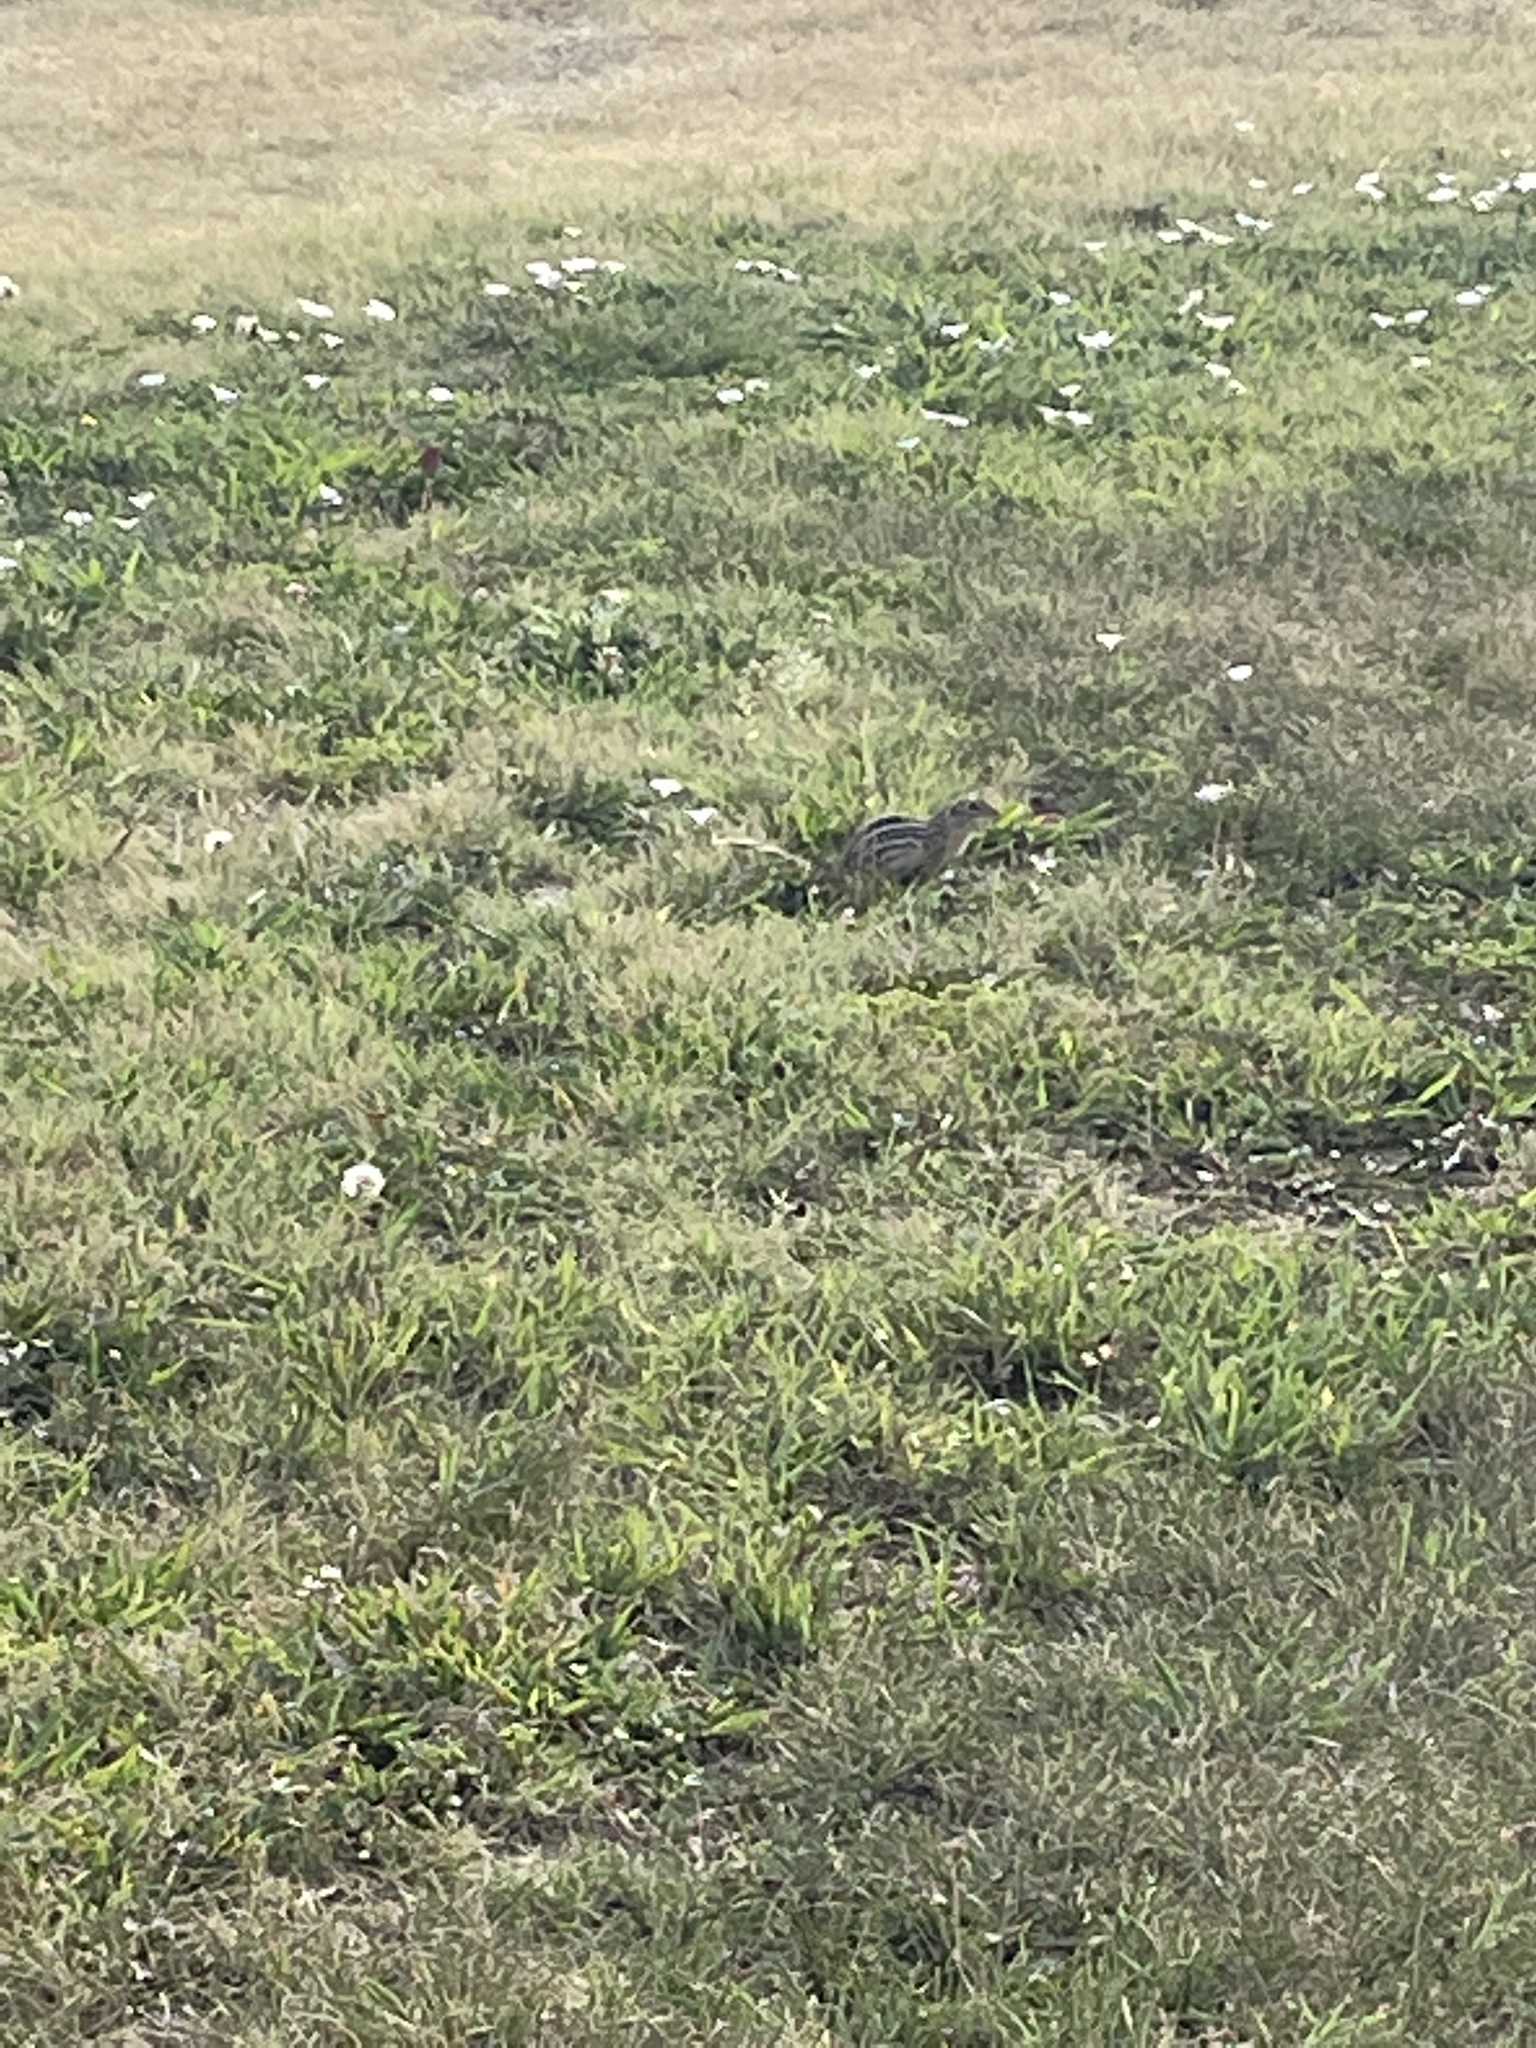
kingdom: Animalia
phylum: Chordata
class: Mammalia
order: Rodentia
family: Sciuridae
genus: Ictidomys
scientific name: Ictidomys tridecemlineatus
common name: Thirteen-lined ground squirrel
